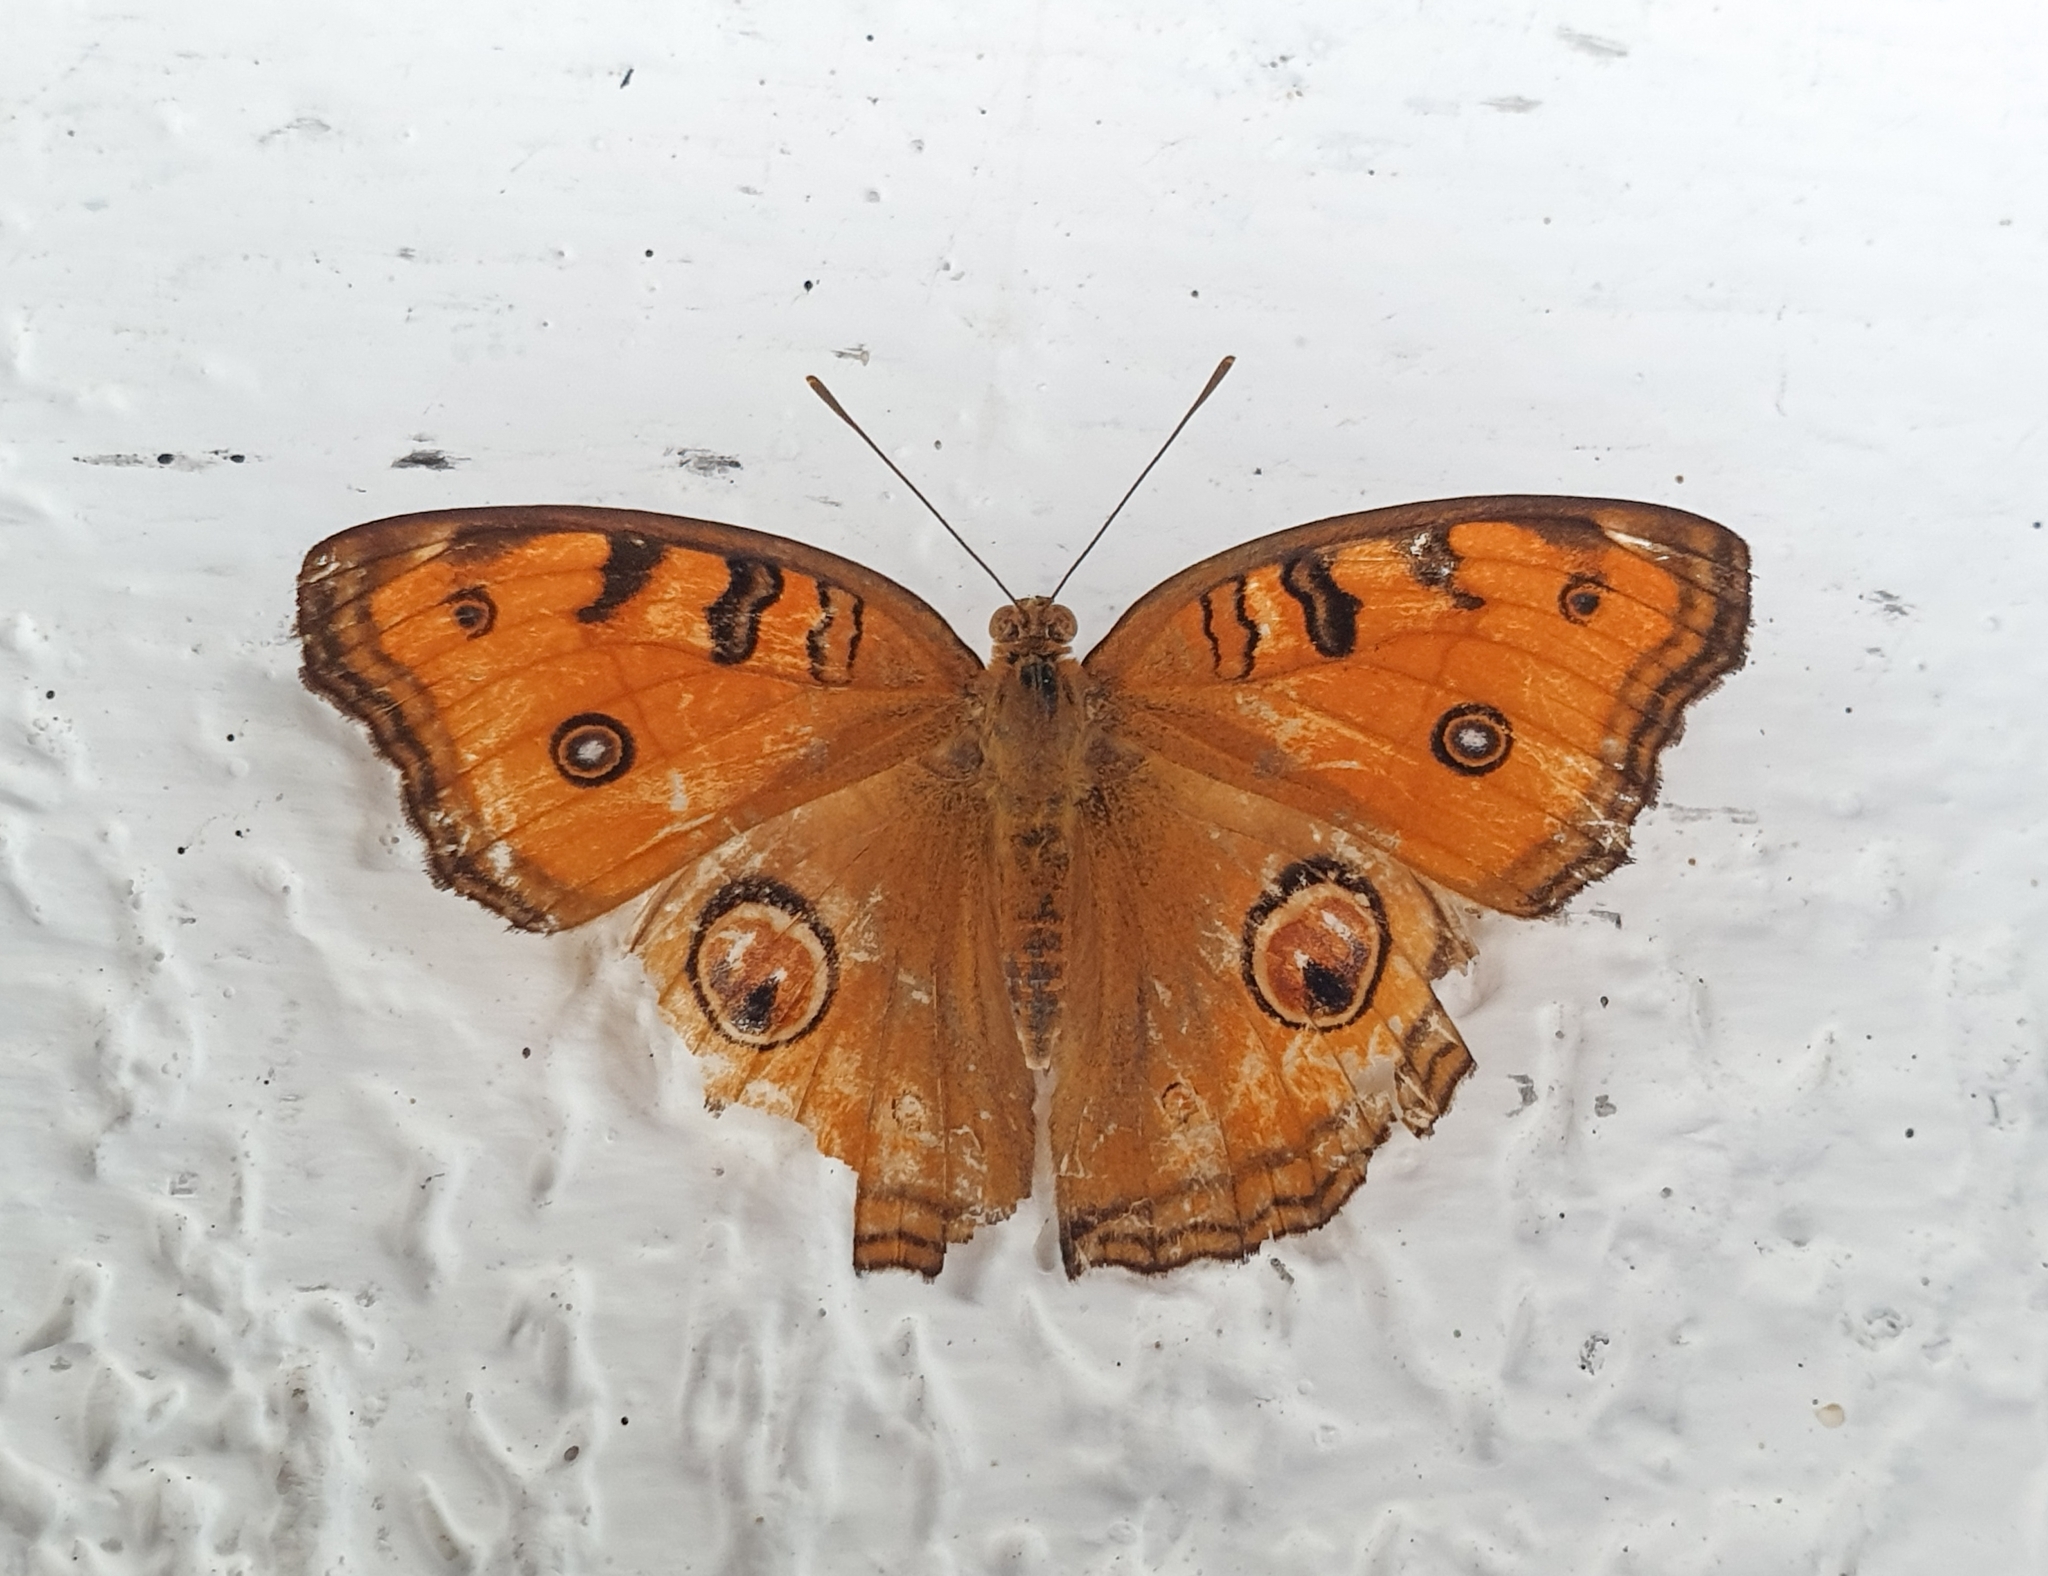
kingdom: Animalia
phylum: Arthropoda
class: Insecta
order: Lepidoptera
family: Nymphalidae
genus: Junonia
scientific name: Junonia almana
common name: Peacock pansy
